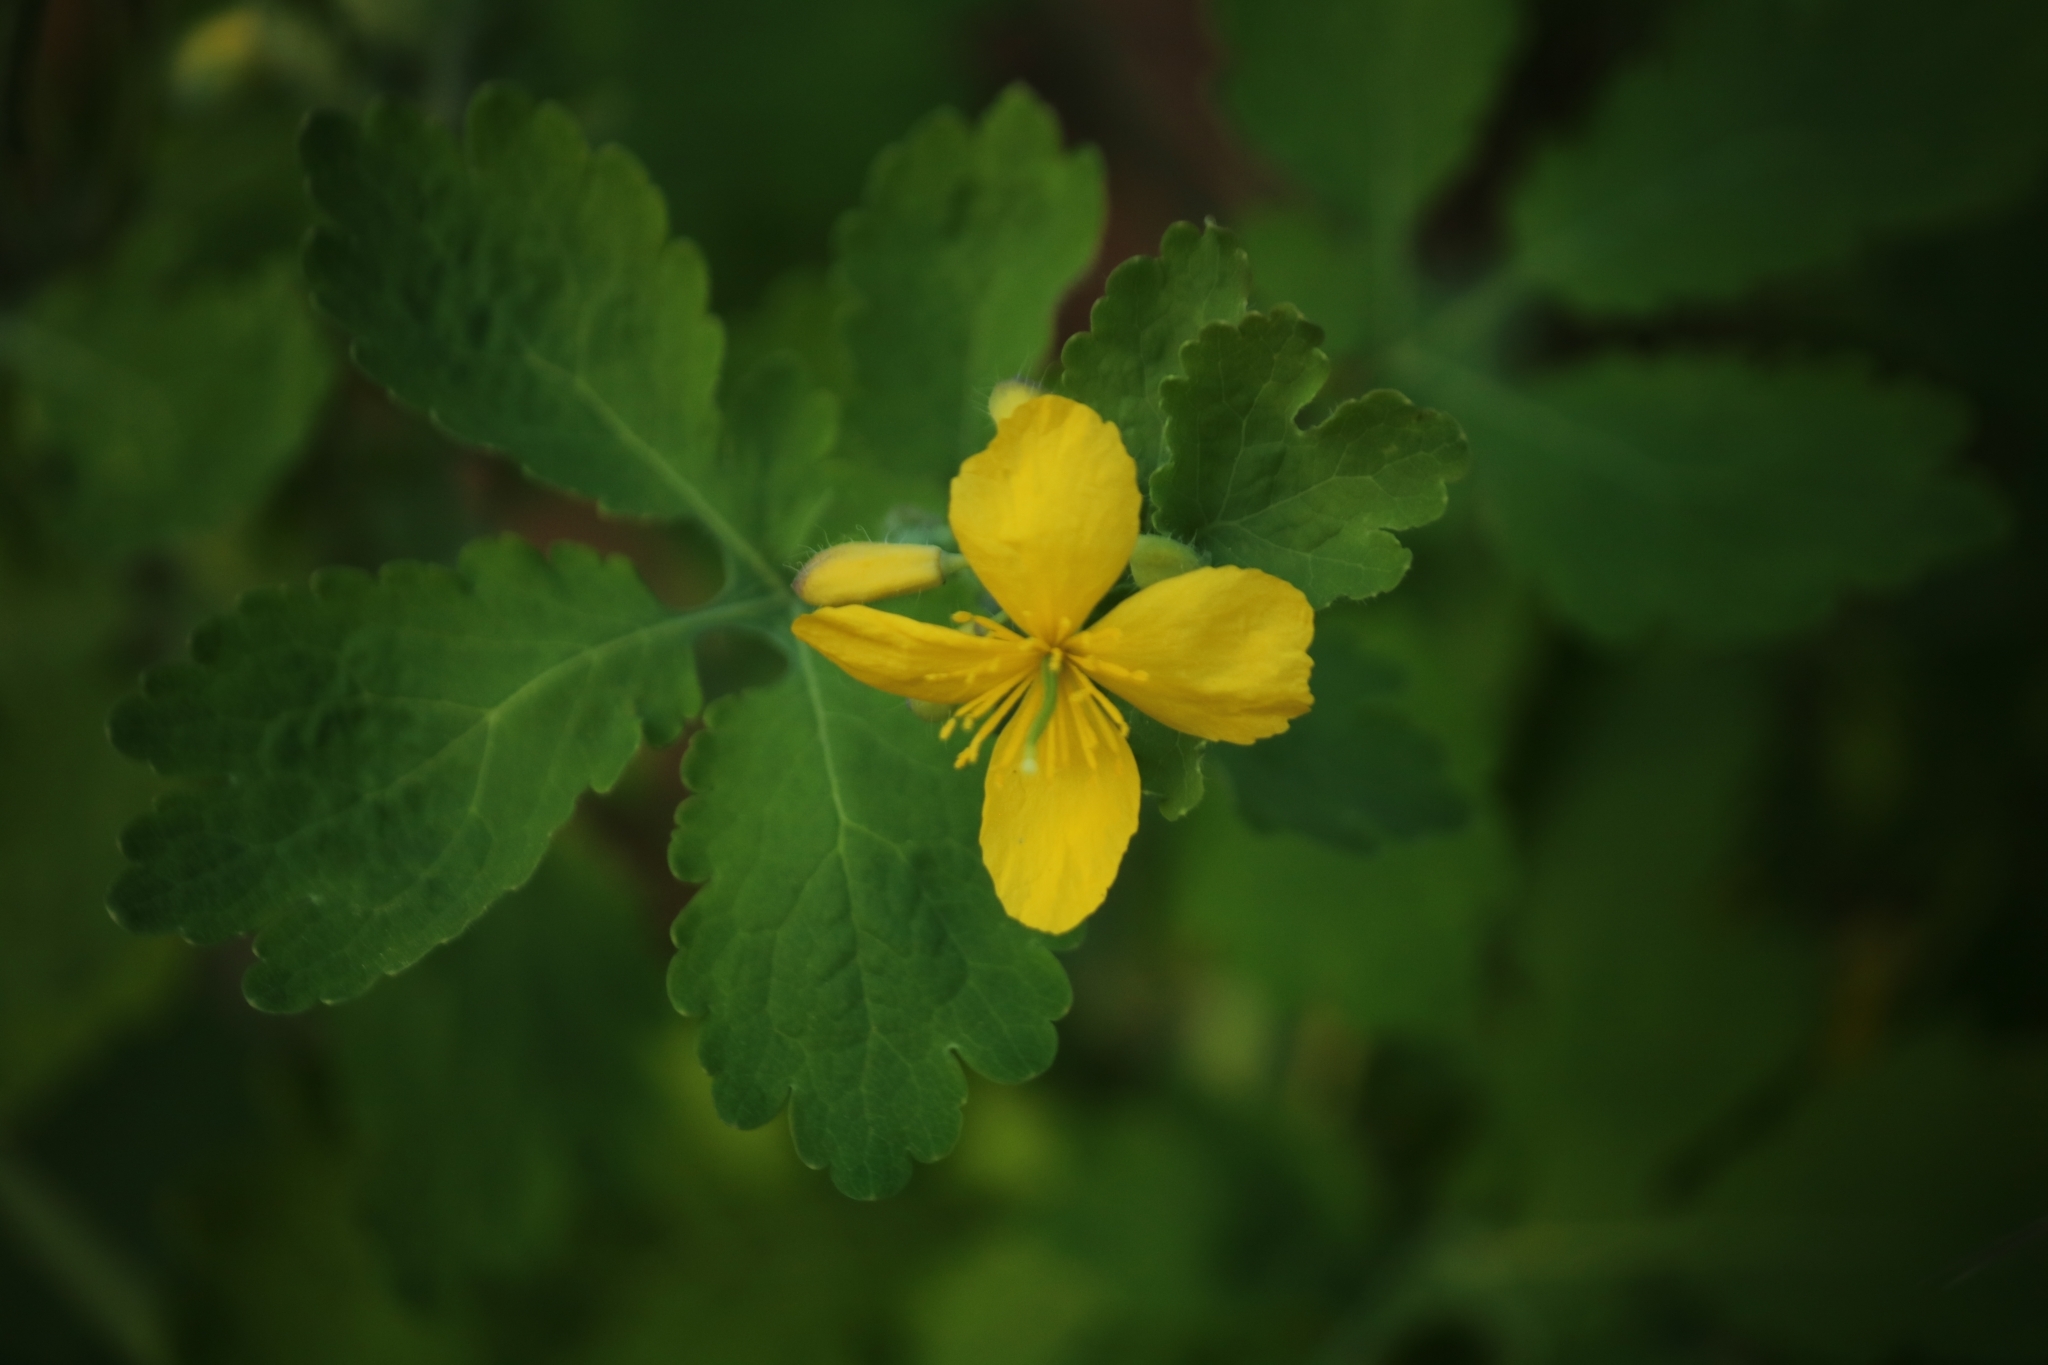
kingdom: Plantae
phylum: Tracheophyta
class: Magnoliopsida
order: Ranunculales
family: Papaveraceae
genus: Chelidonium
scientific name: Chelidonium majus
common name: Greater celandine
